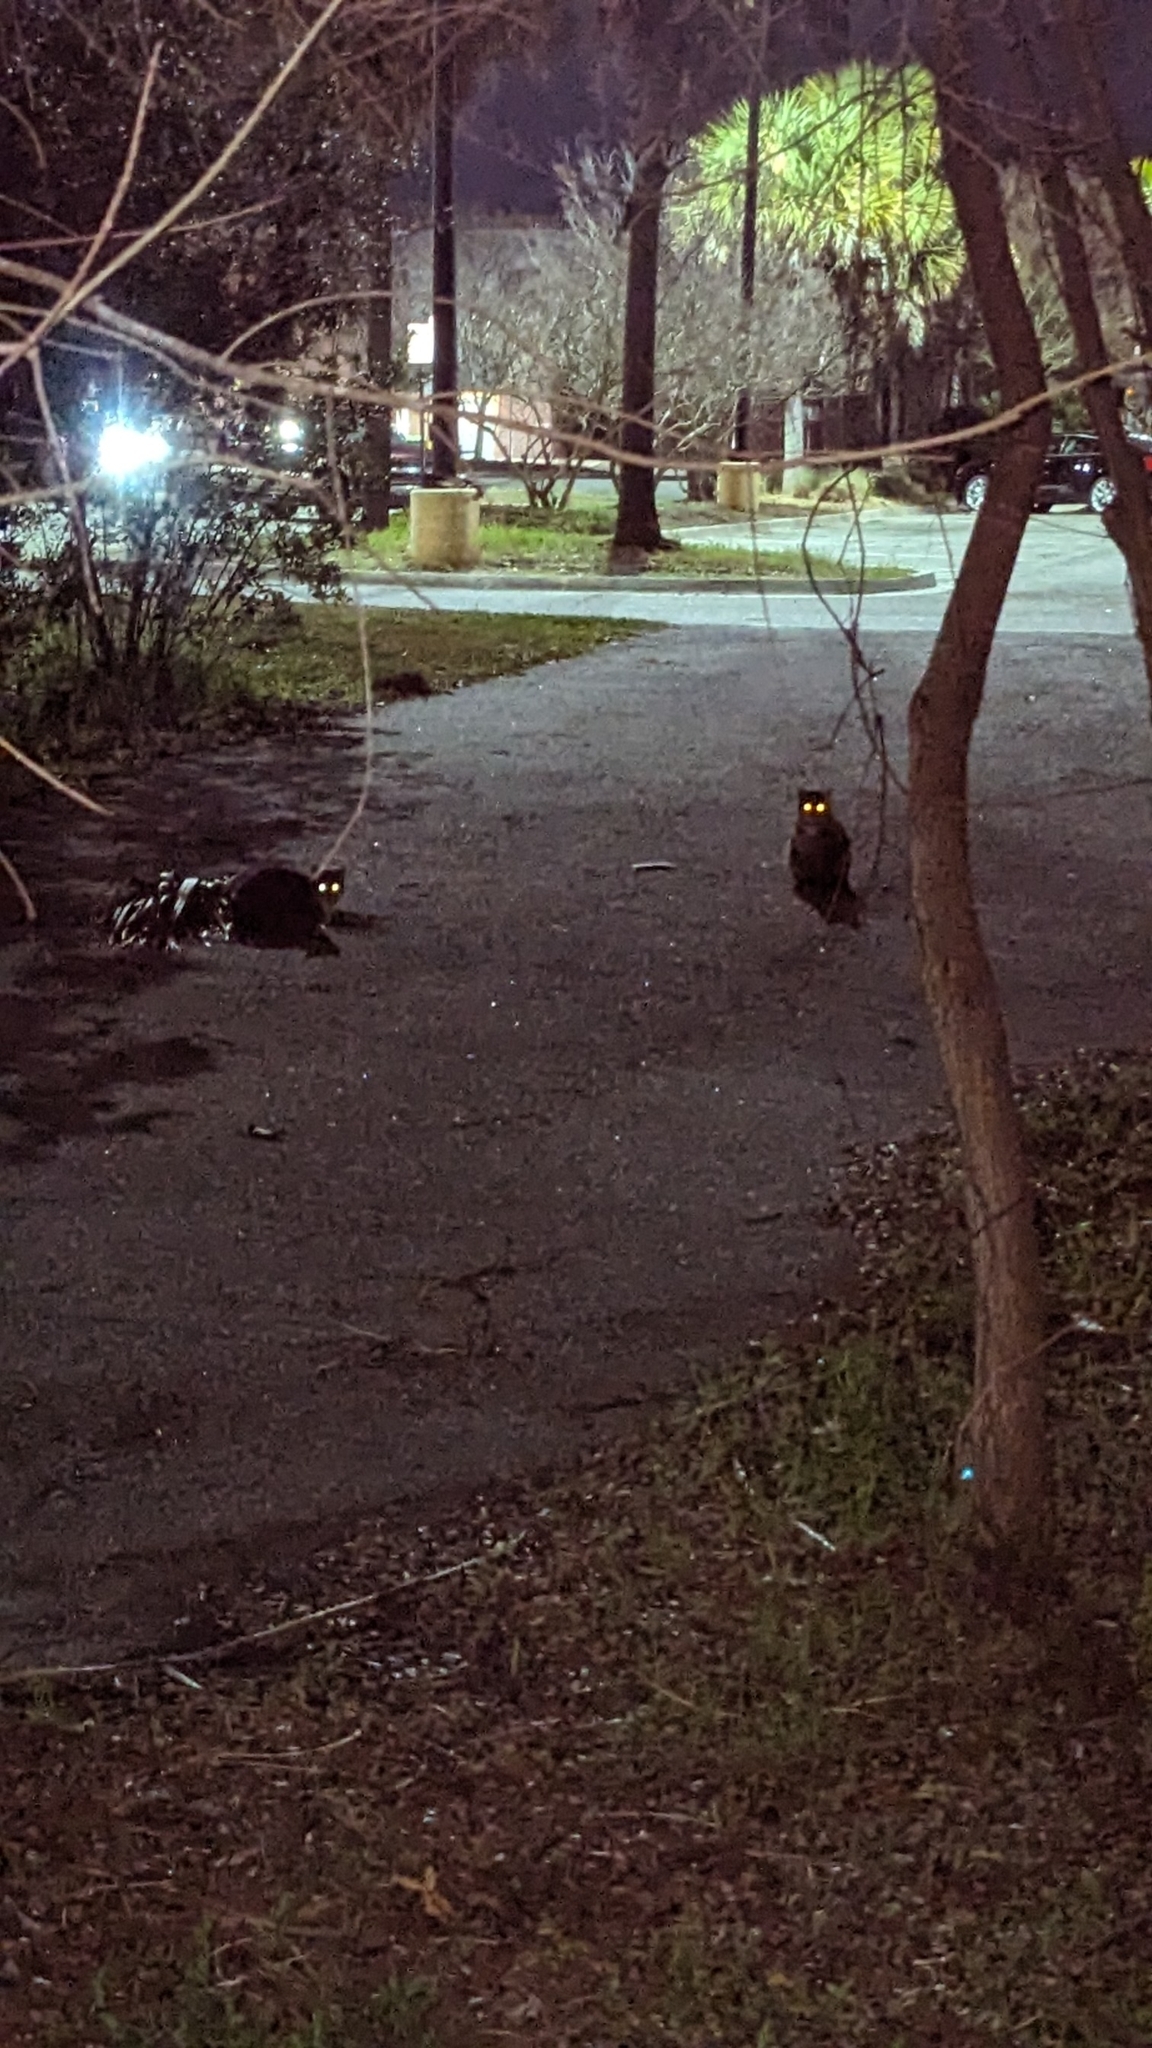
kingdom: Animalia
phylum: Chordata
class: Mammalia
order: Carnivora
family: Felidae
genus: Felis
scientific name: Felis catus
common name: Domestic cat
